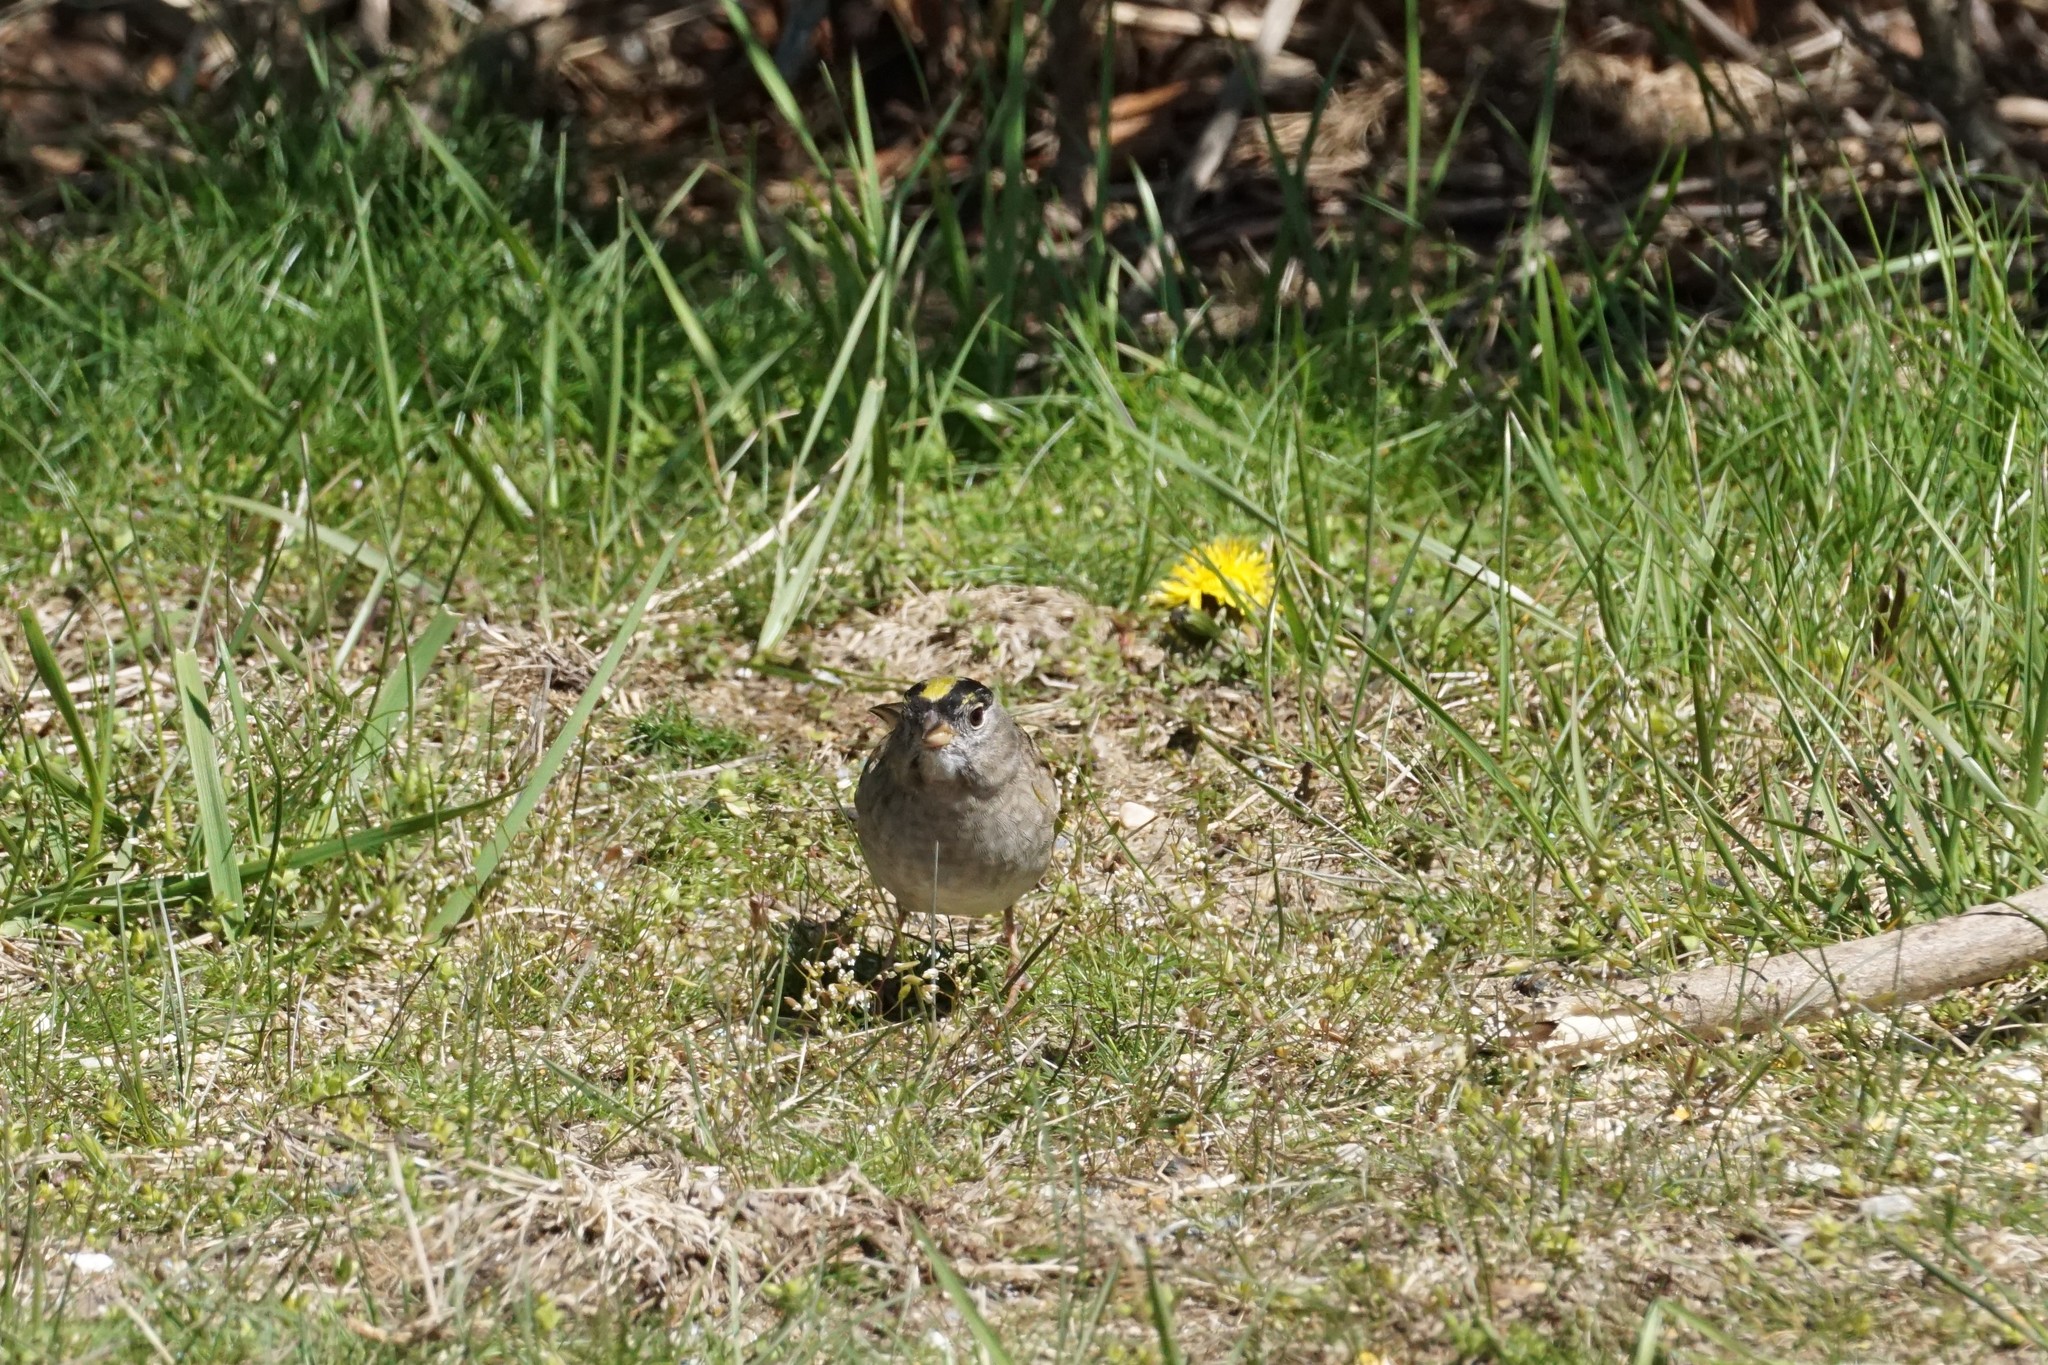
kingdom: Animalia
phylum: Chordata
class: Aves
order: Passeriformes
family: Passerellidae
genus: Zonotrichia
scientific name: Zonotrichia atricapilla
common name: Golden-crowned sparrow
